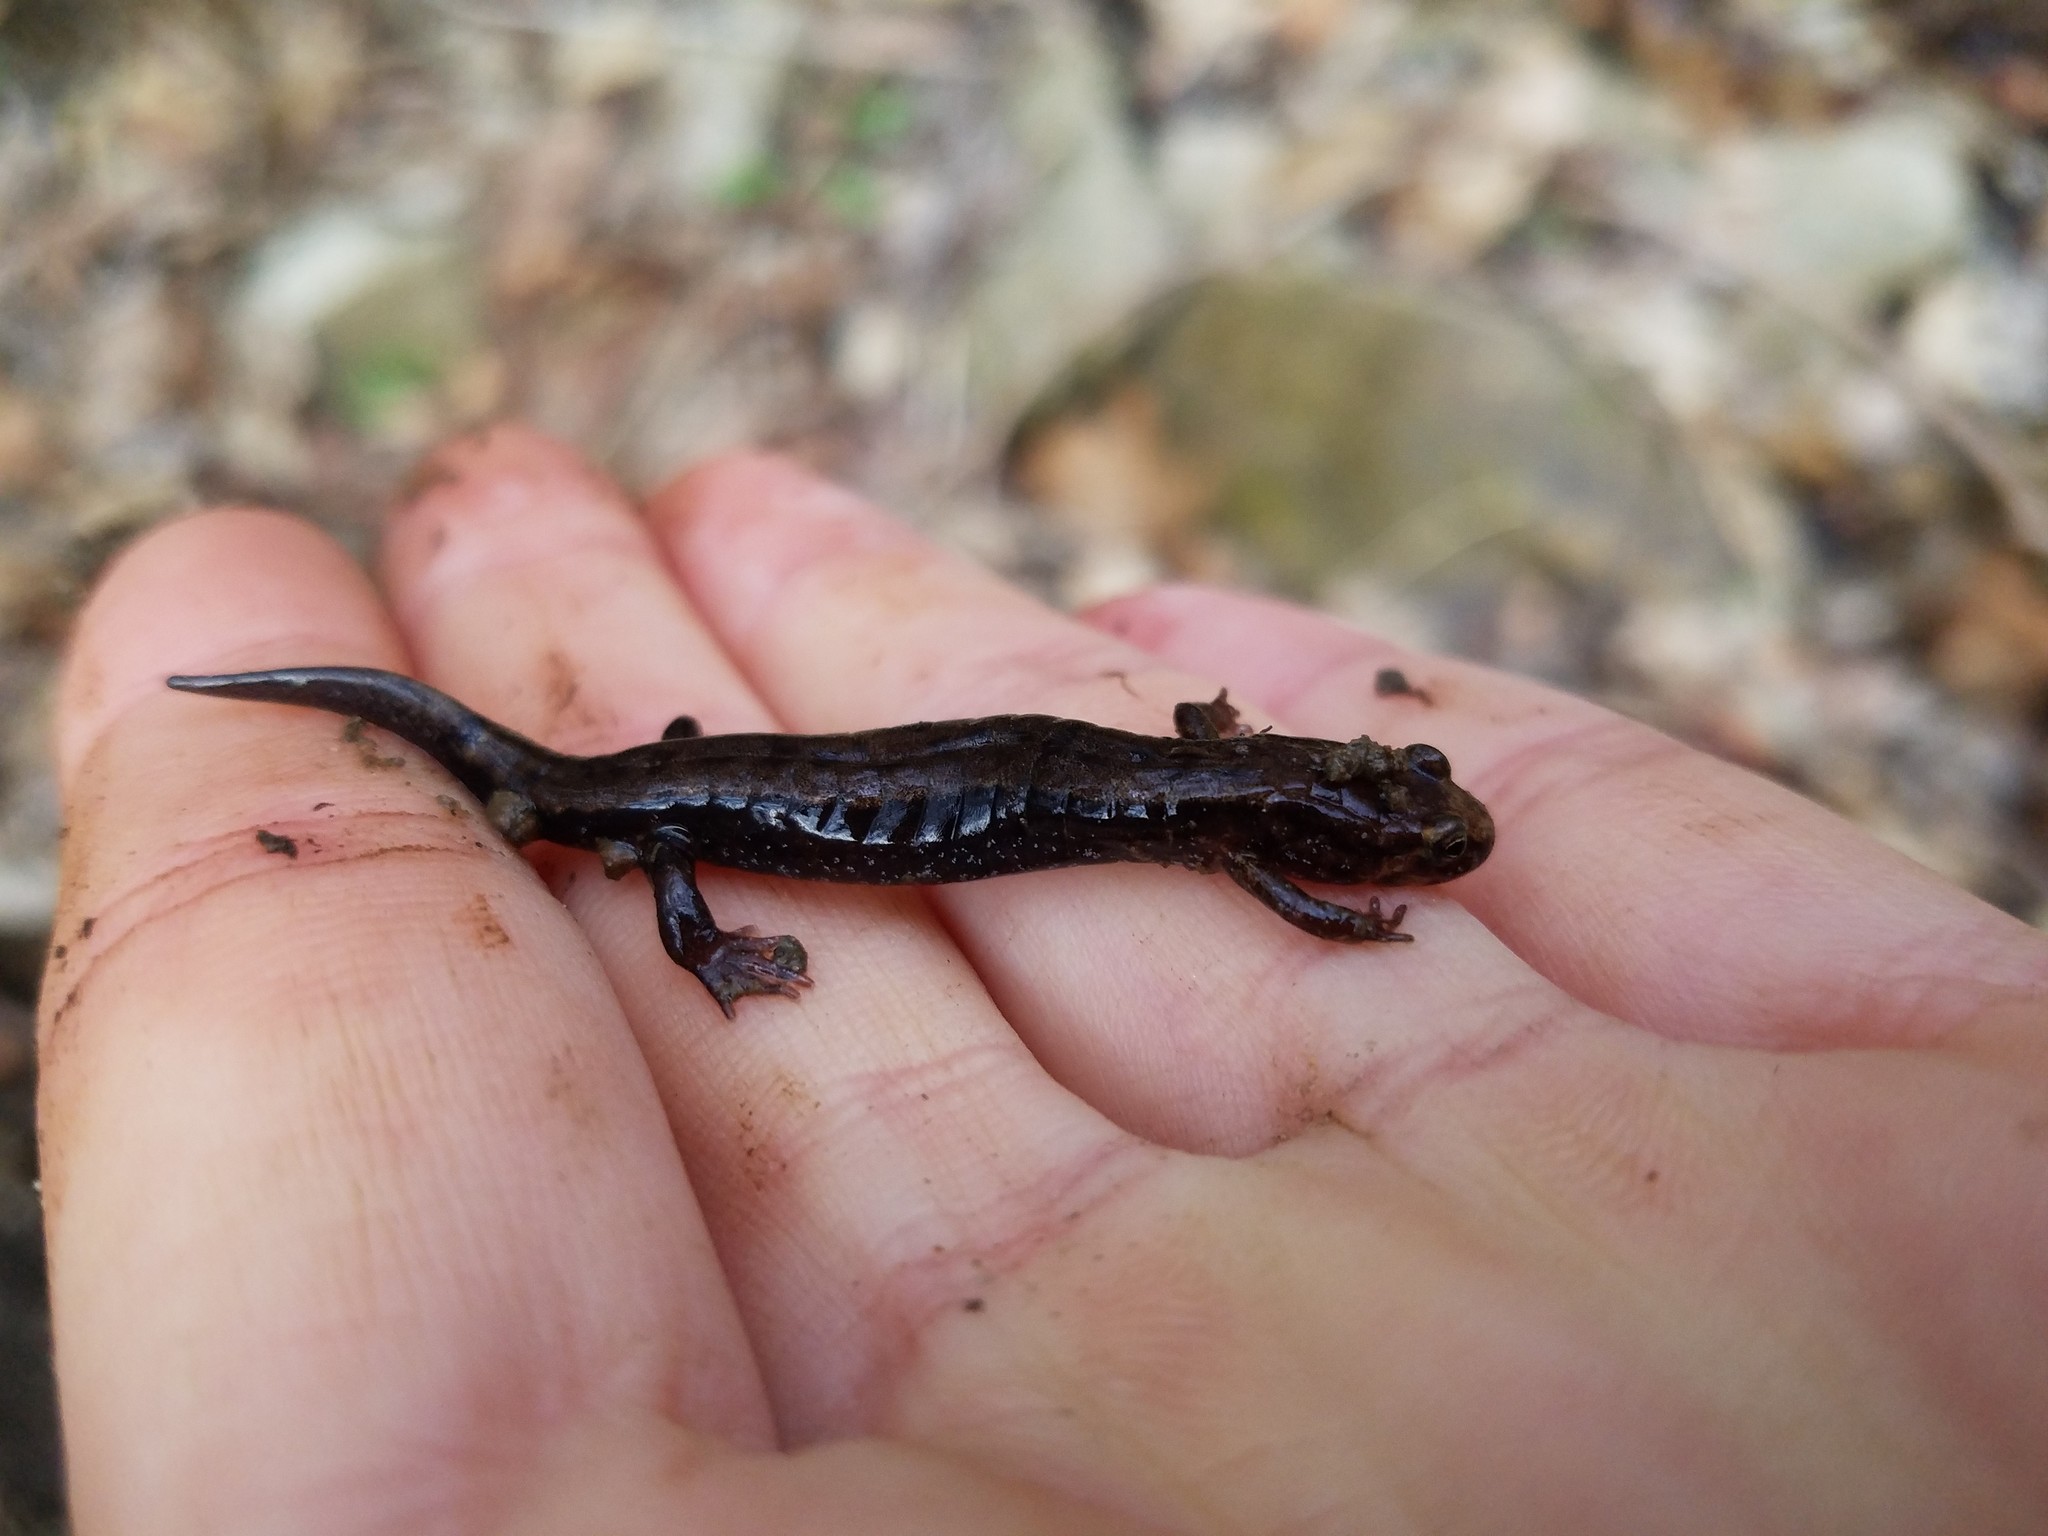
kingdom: Animalia
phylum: Chordata
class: Amphibia
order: Caudata
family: Plethodontidae
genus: Desmognathus
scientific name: Desmognathus ochrophaeus
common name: Allegheny mountain dusky salamander
